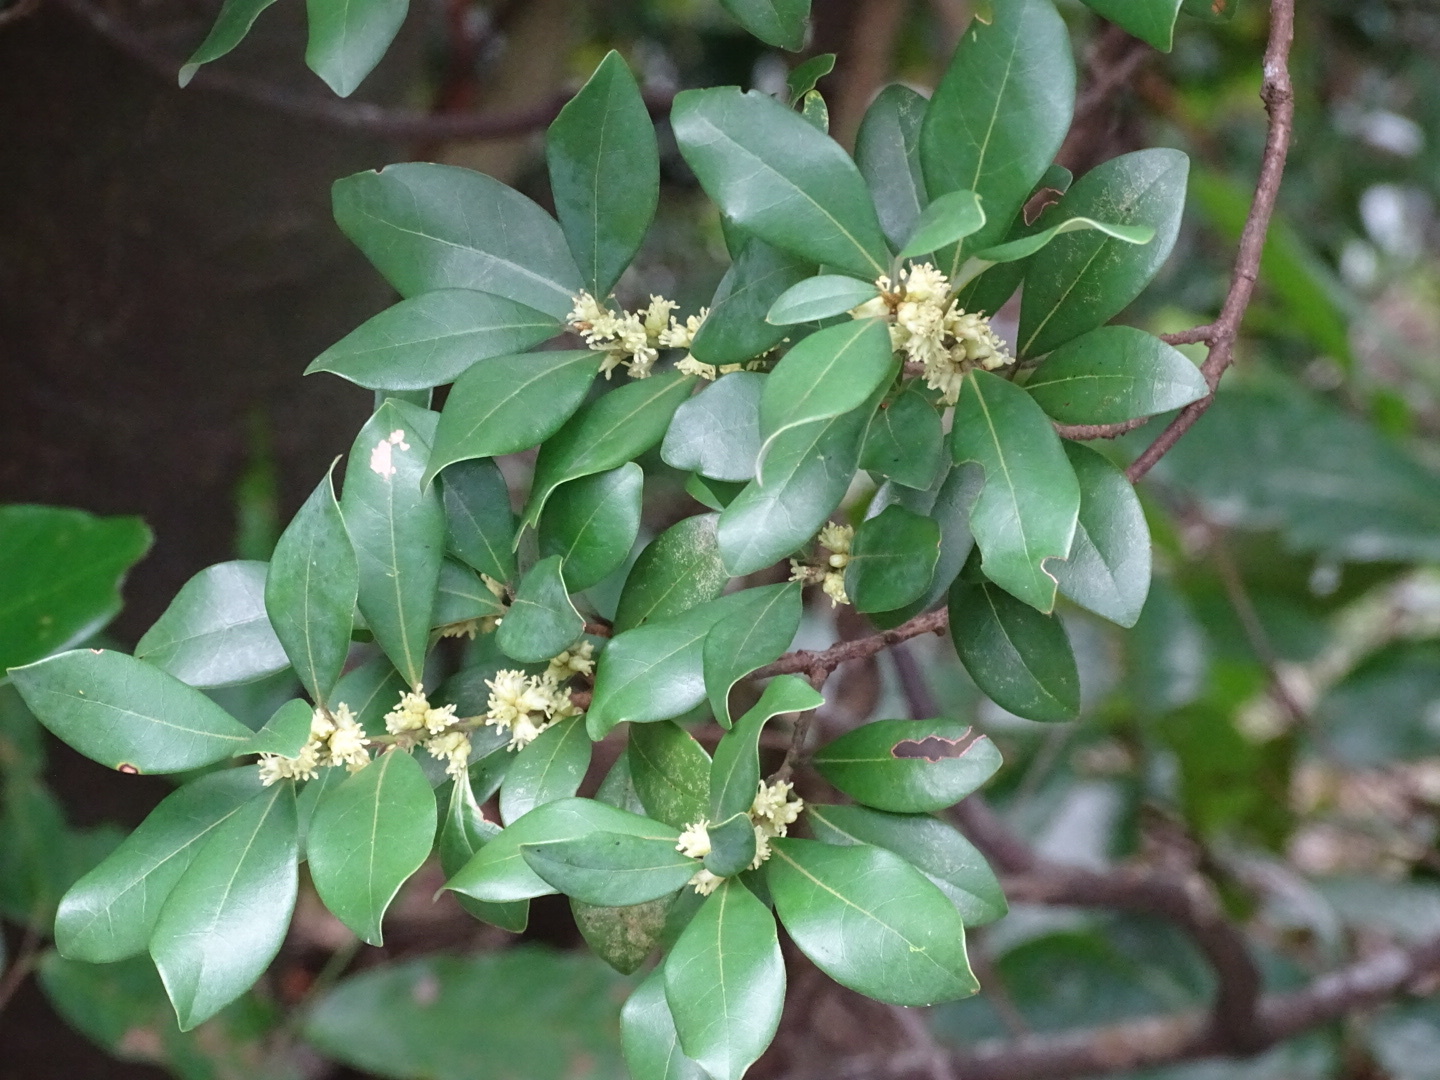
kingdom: Plantae
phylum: Tracheophyta
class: Magnoliopsida
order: Laurales
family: Lauraceae
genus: Litsea
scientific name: Litsea rotundifolia
